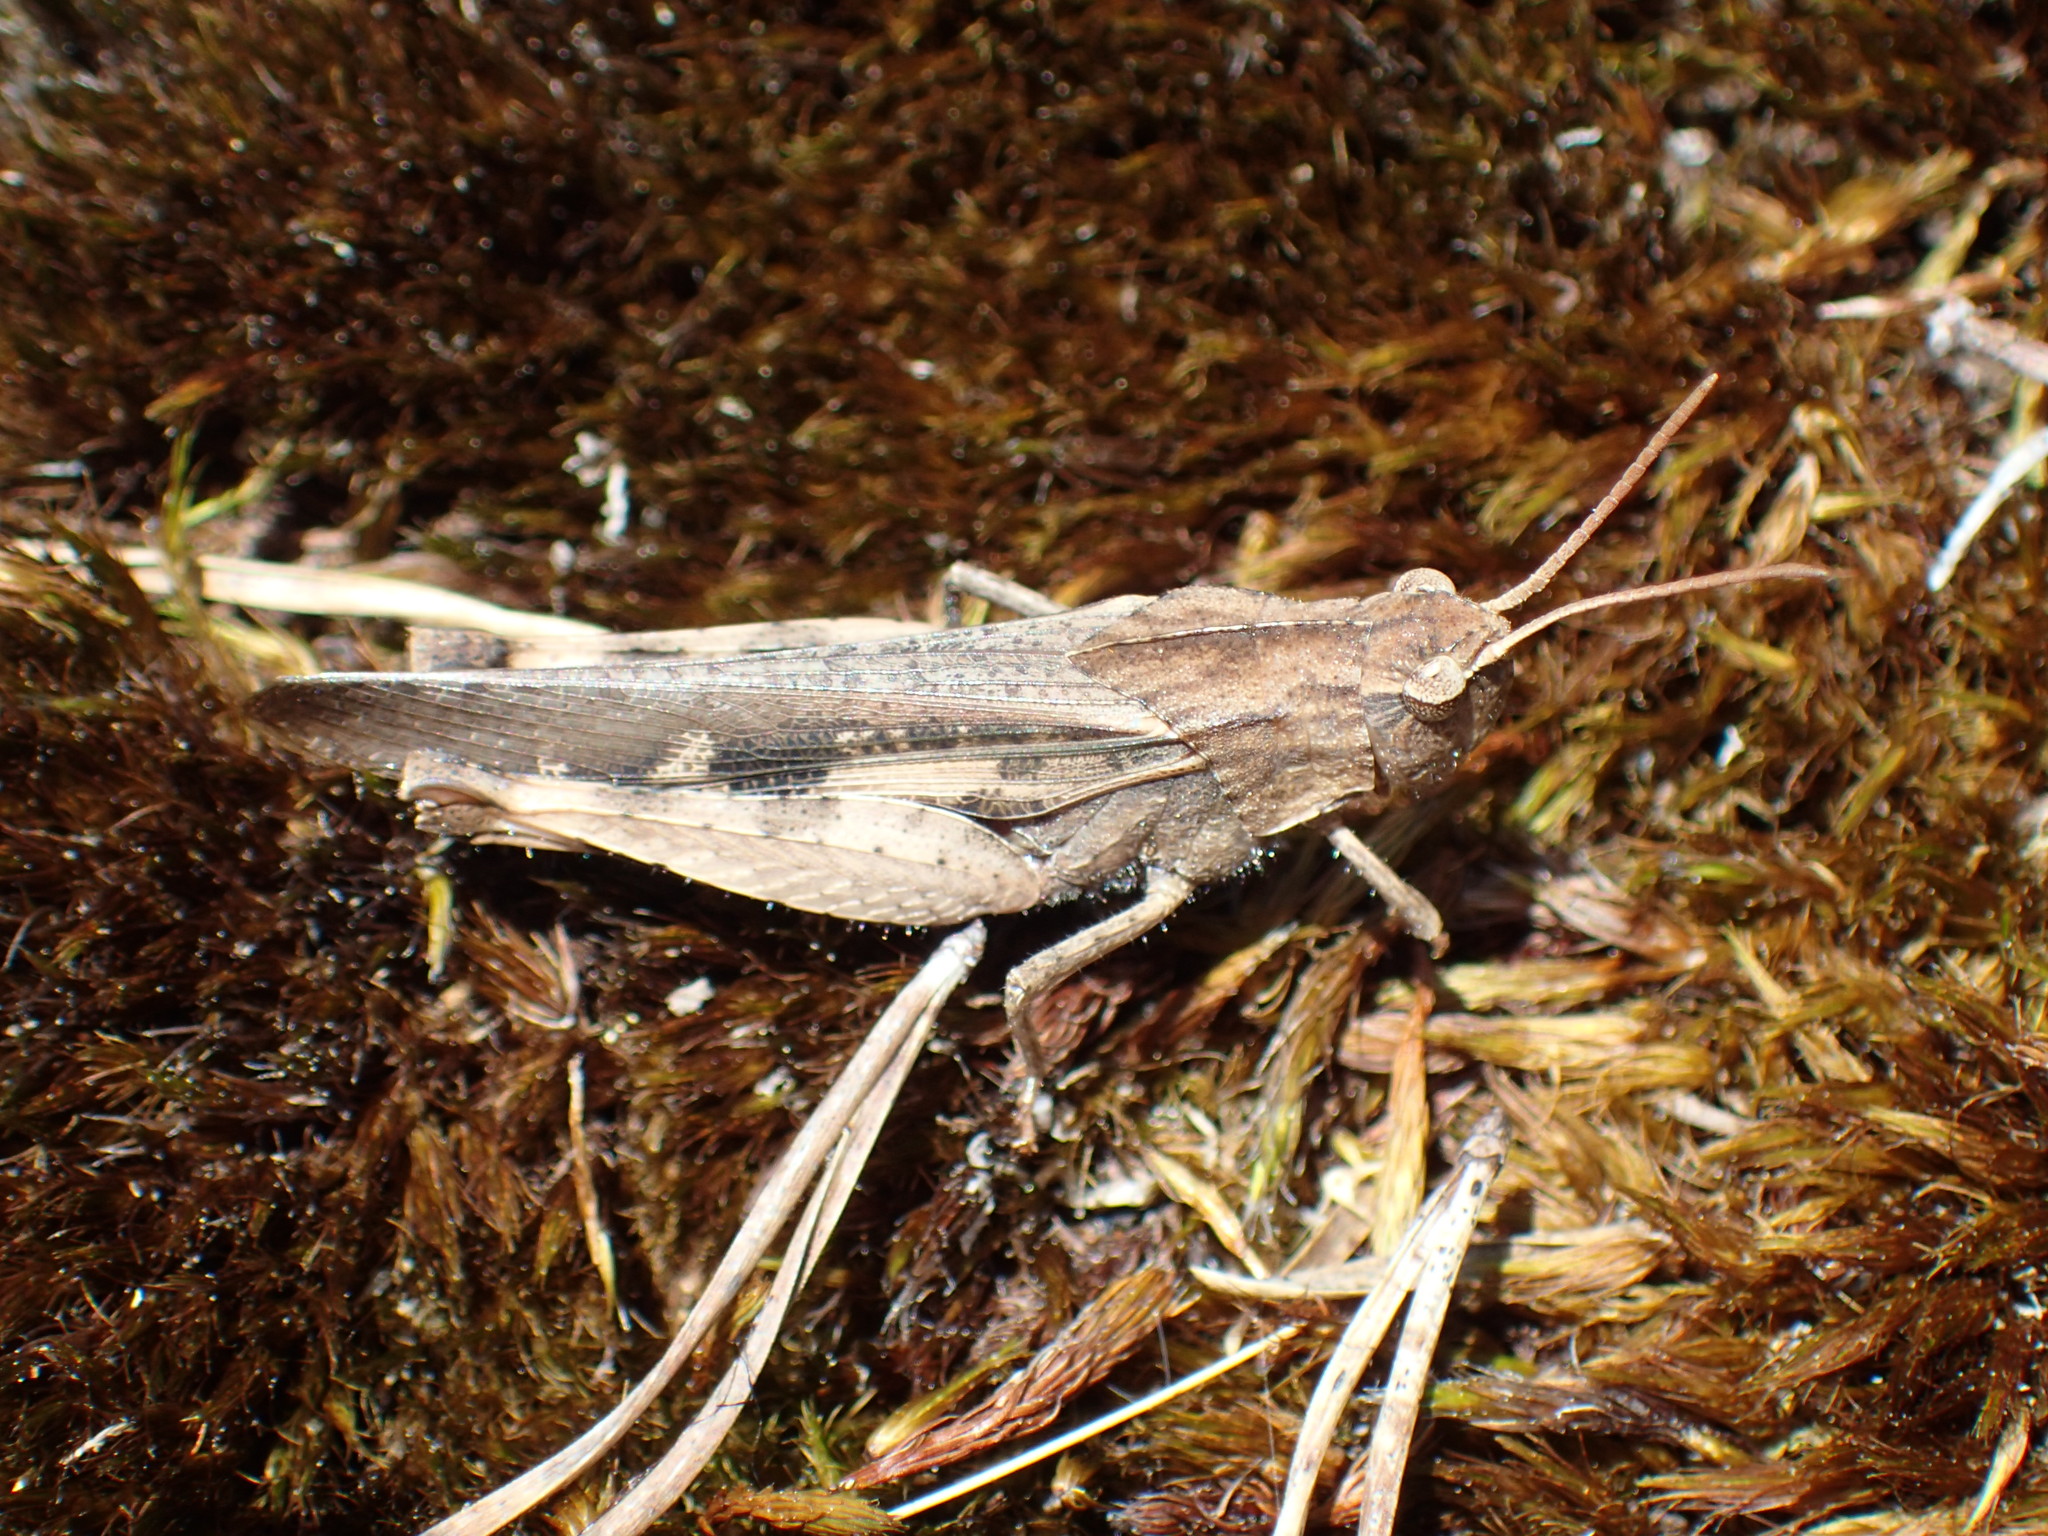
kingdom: Animalia
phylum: Arthropoda
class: Insecta
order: Orthoptera
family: Acrididae
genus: Chortophaga
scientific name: Chortophaga viridifasciata
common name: Green-striped grasshopper
